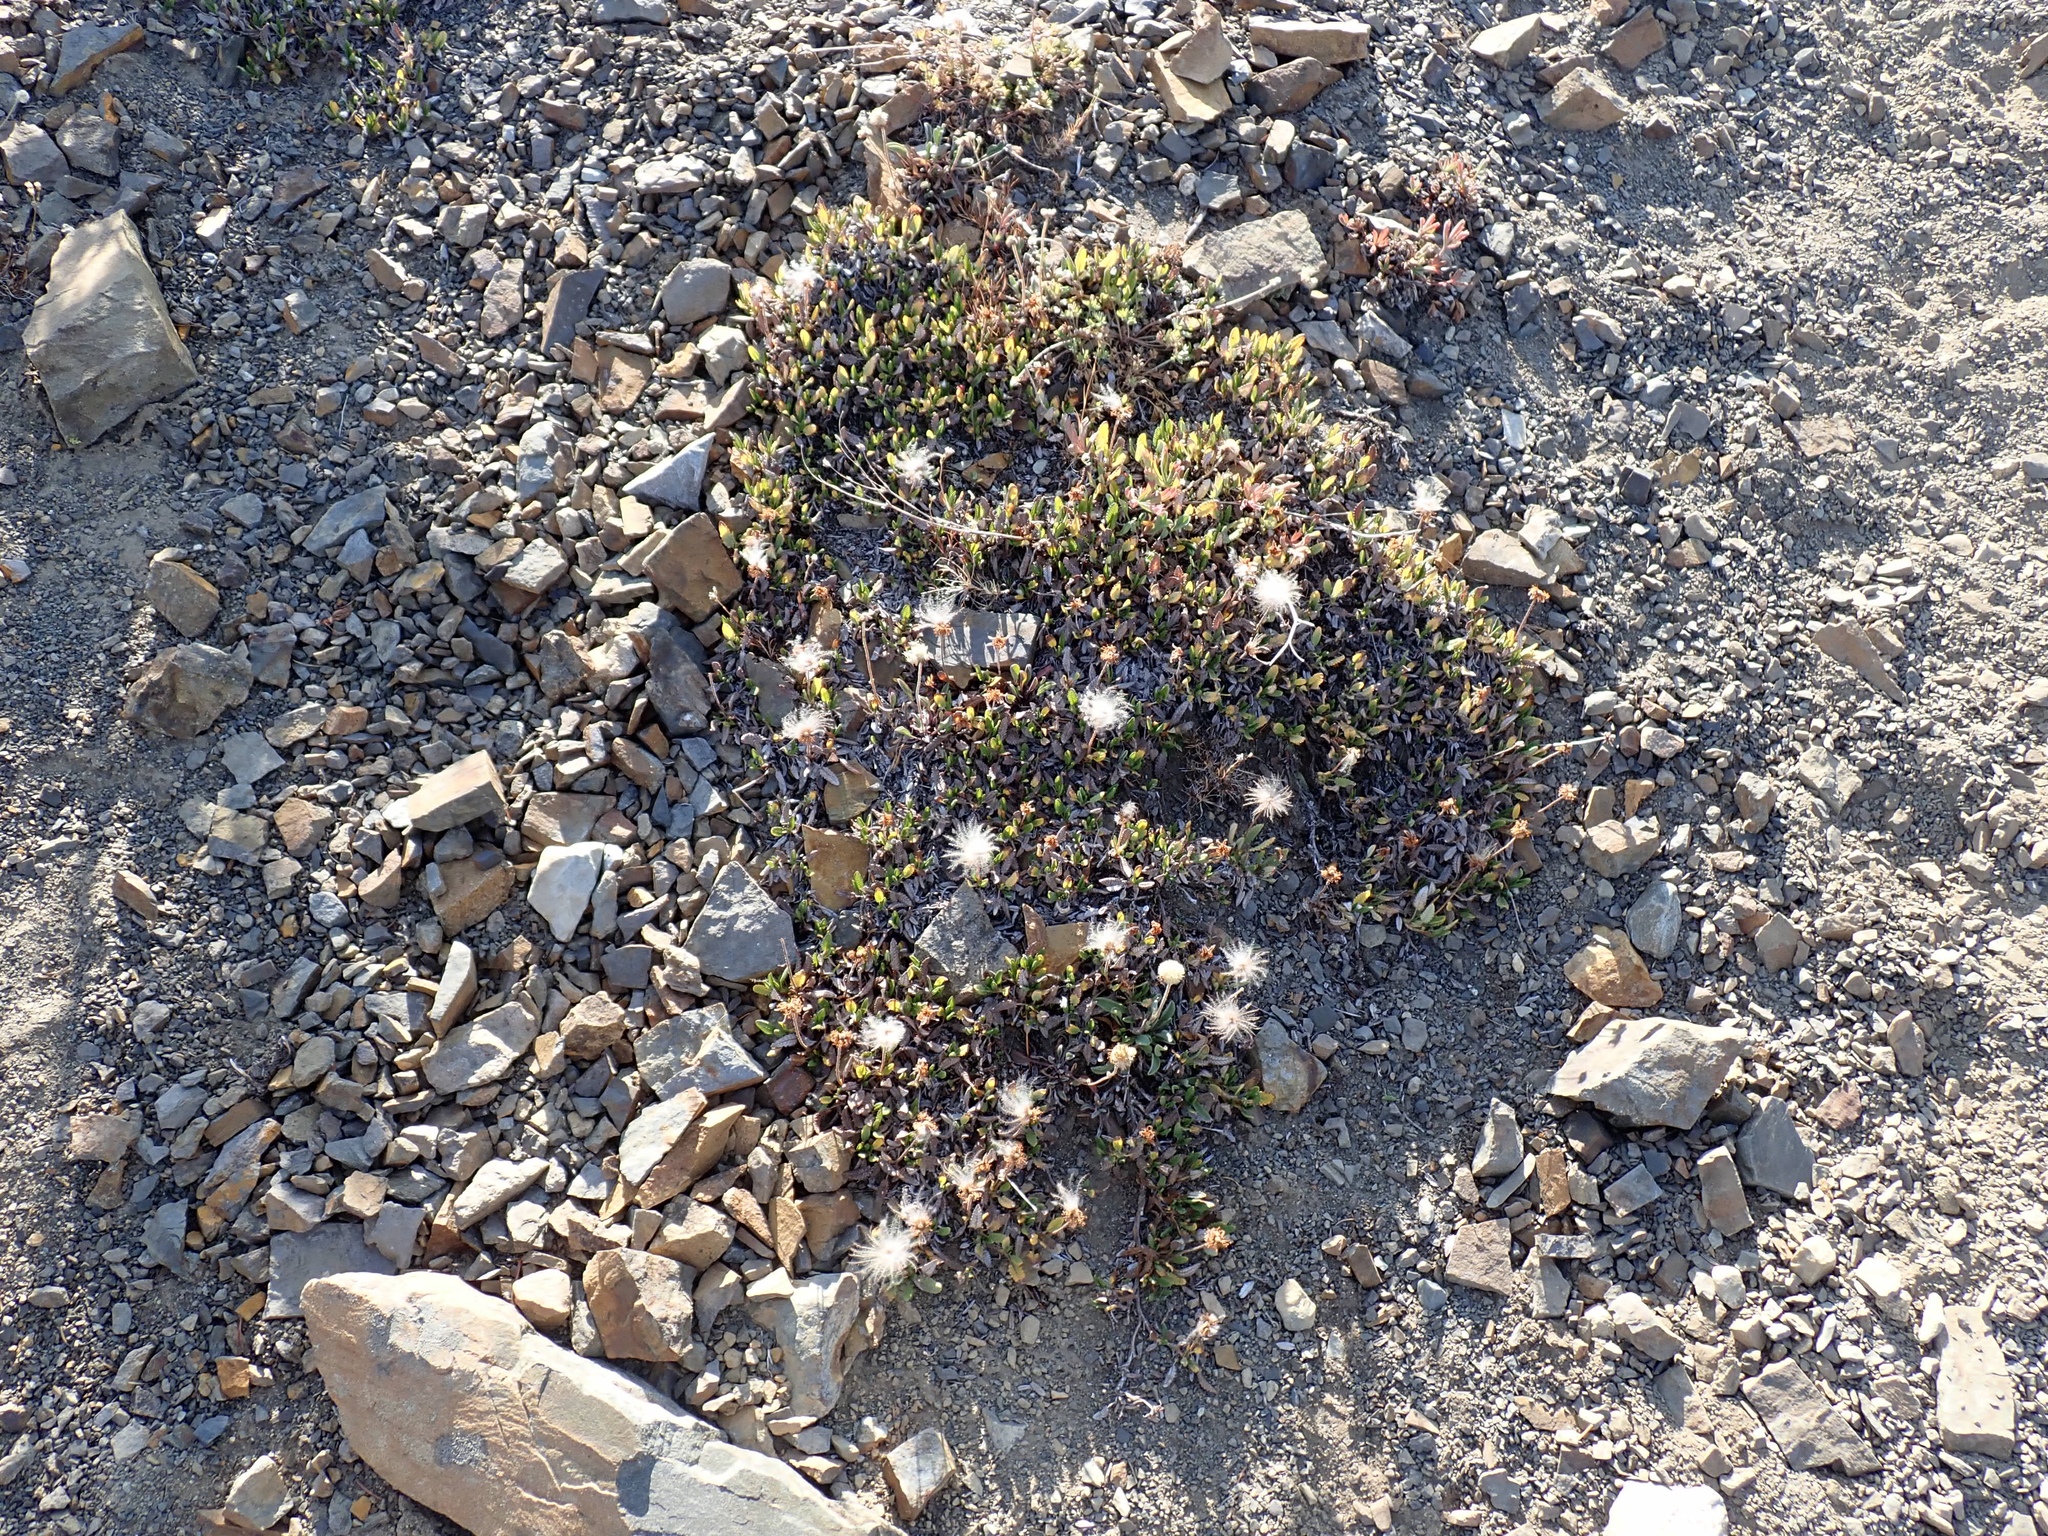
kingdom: Plantae
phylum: Tracheophyta
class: Magnoliopsida
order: Rosales
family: Rosaceae
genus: Dryas
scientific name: Dryas octopetala
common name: Eight-petal mountain-avens
